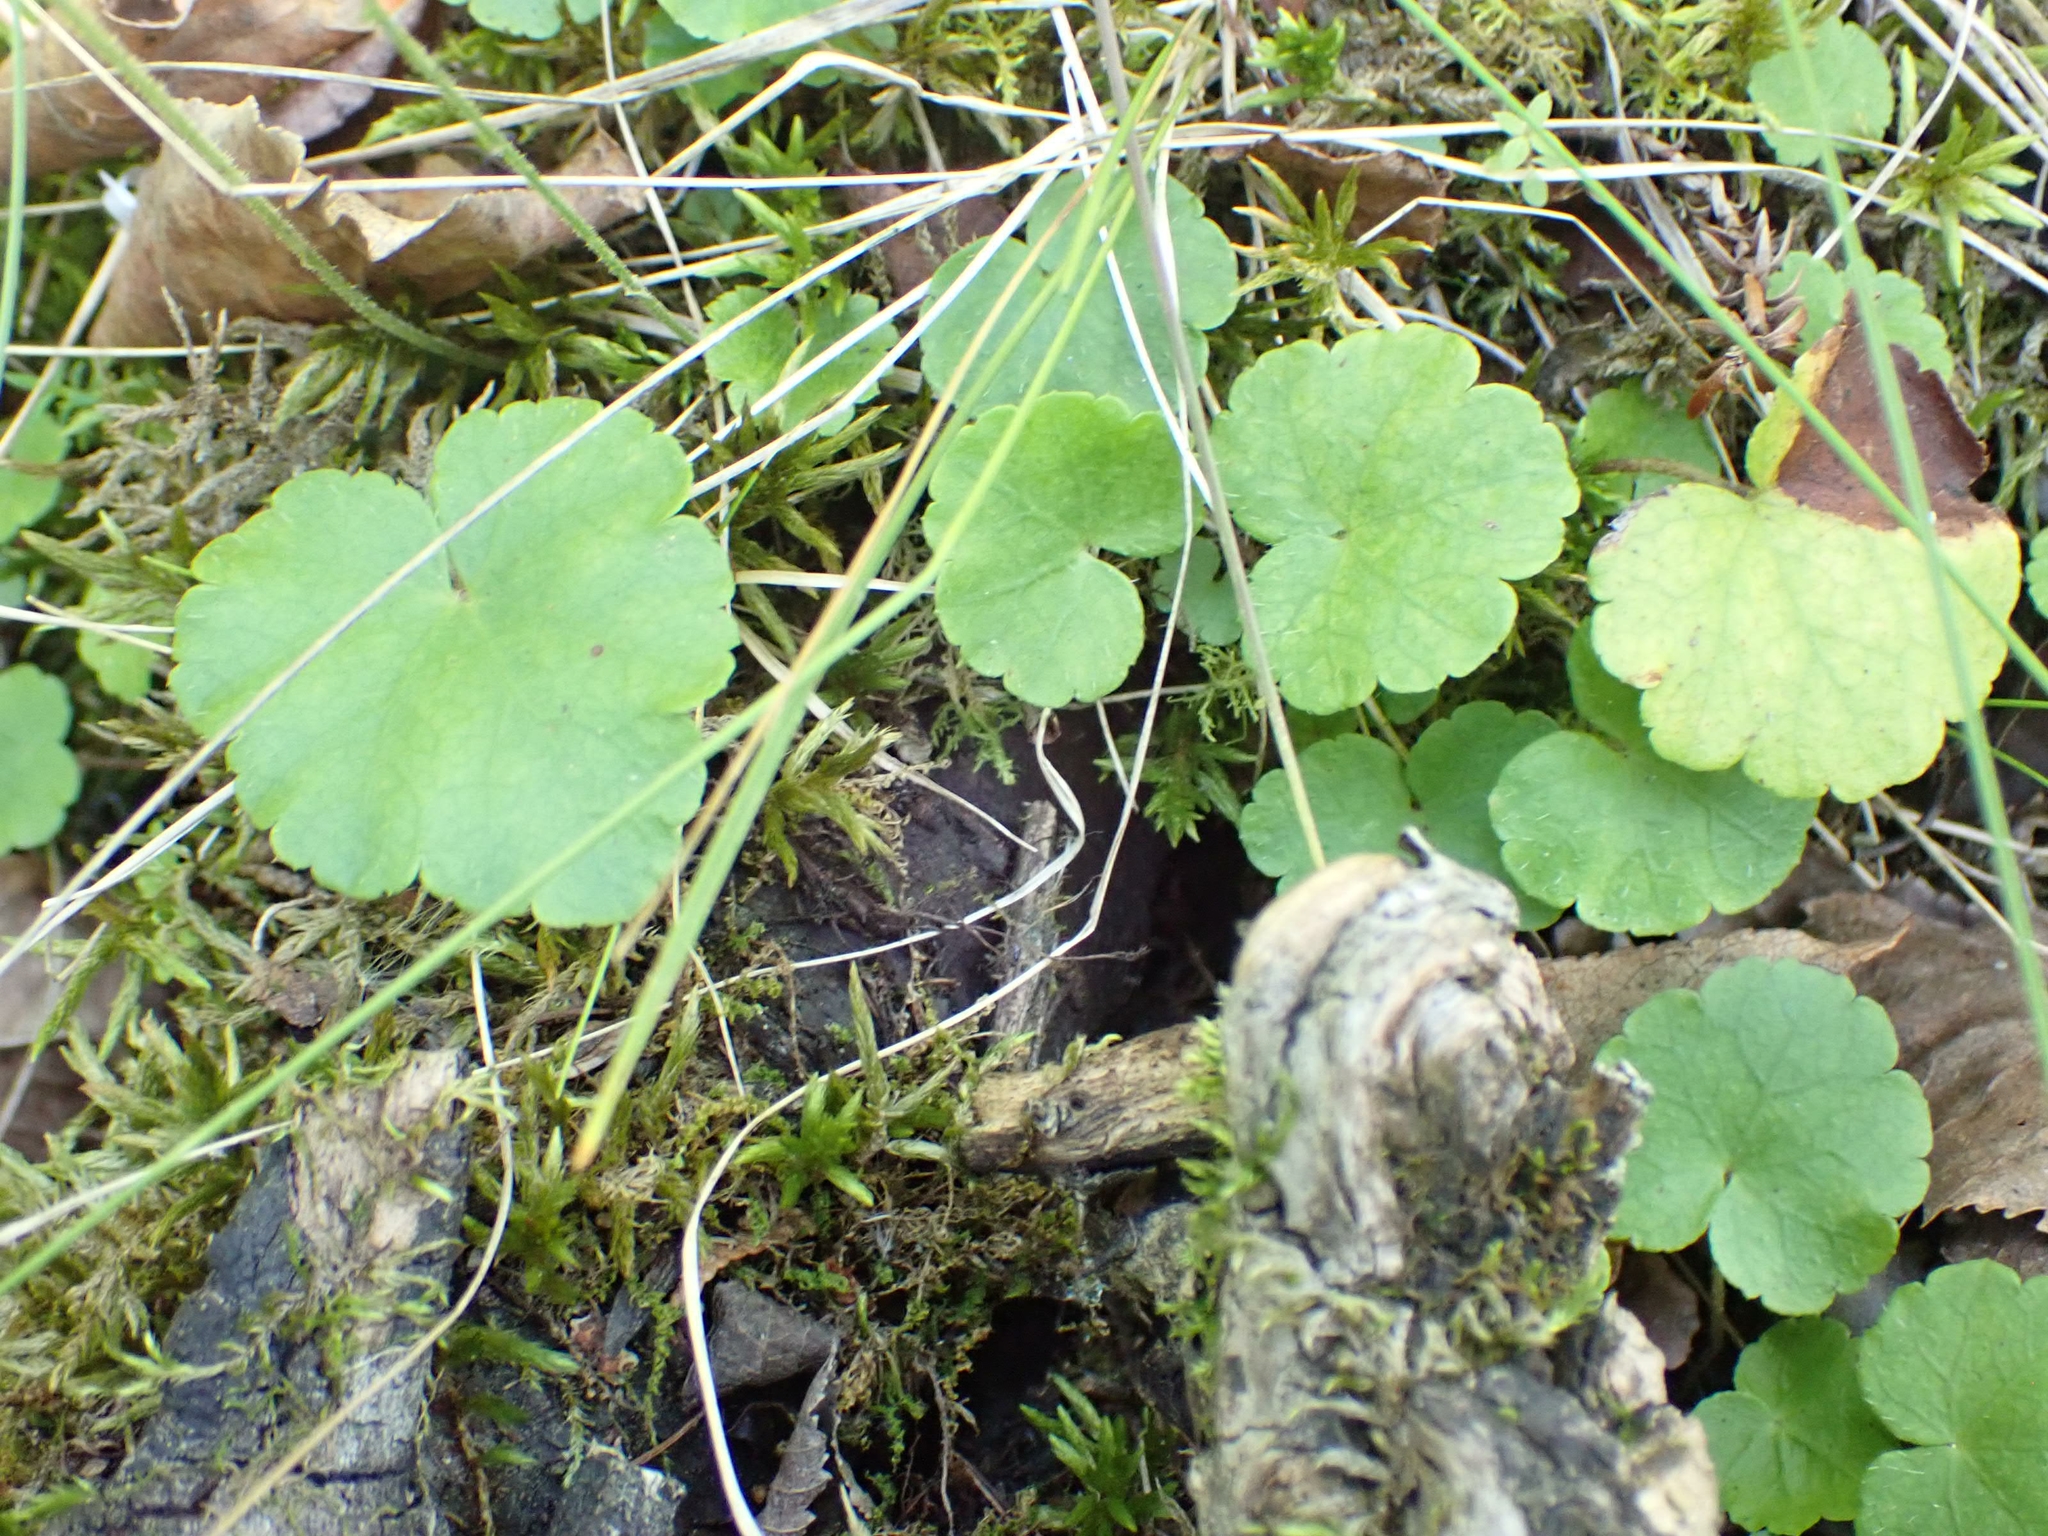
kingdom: Plantae
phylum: Tracheophyta
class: Magnoliopsida
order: Saxifragales
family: Saxifragaceae
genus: Mitella
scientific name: Mitella nuda
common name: Bare-stemmed bishop's-cap
